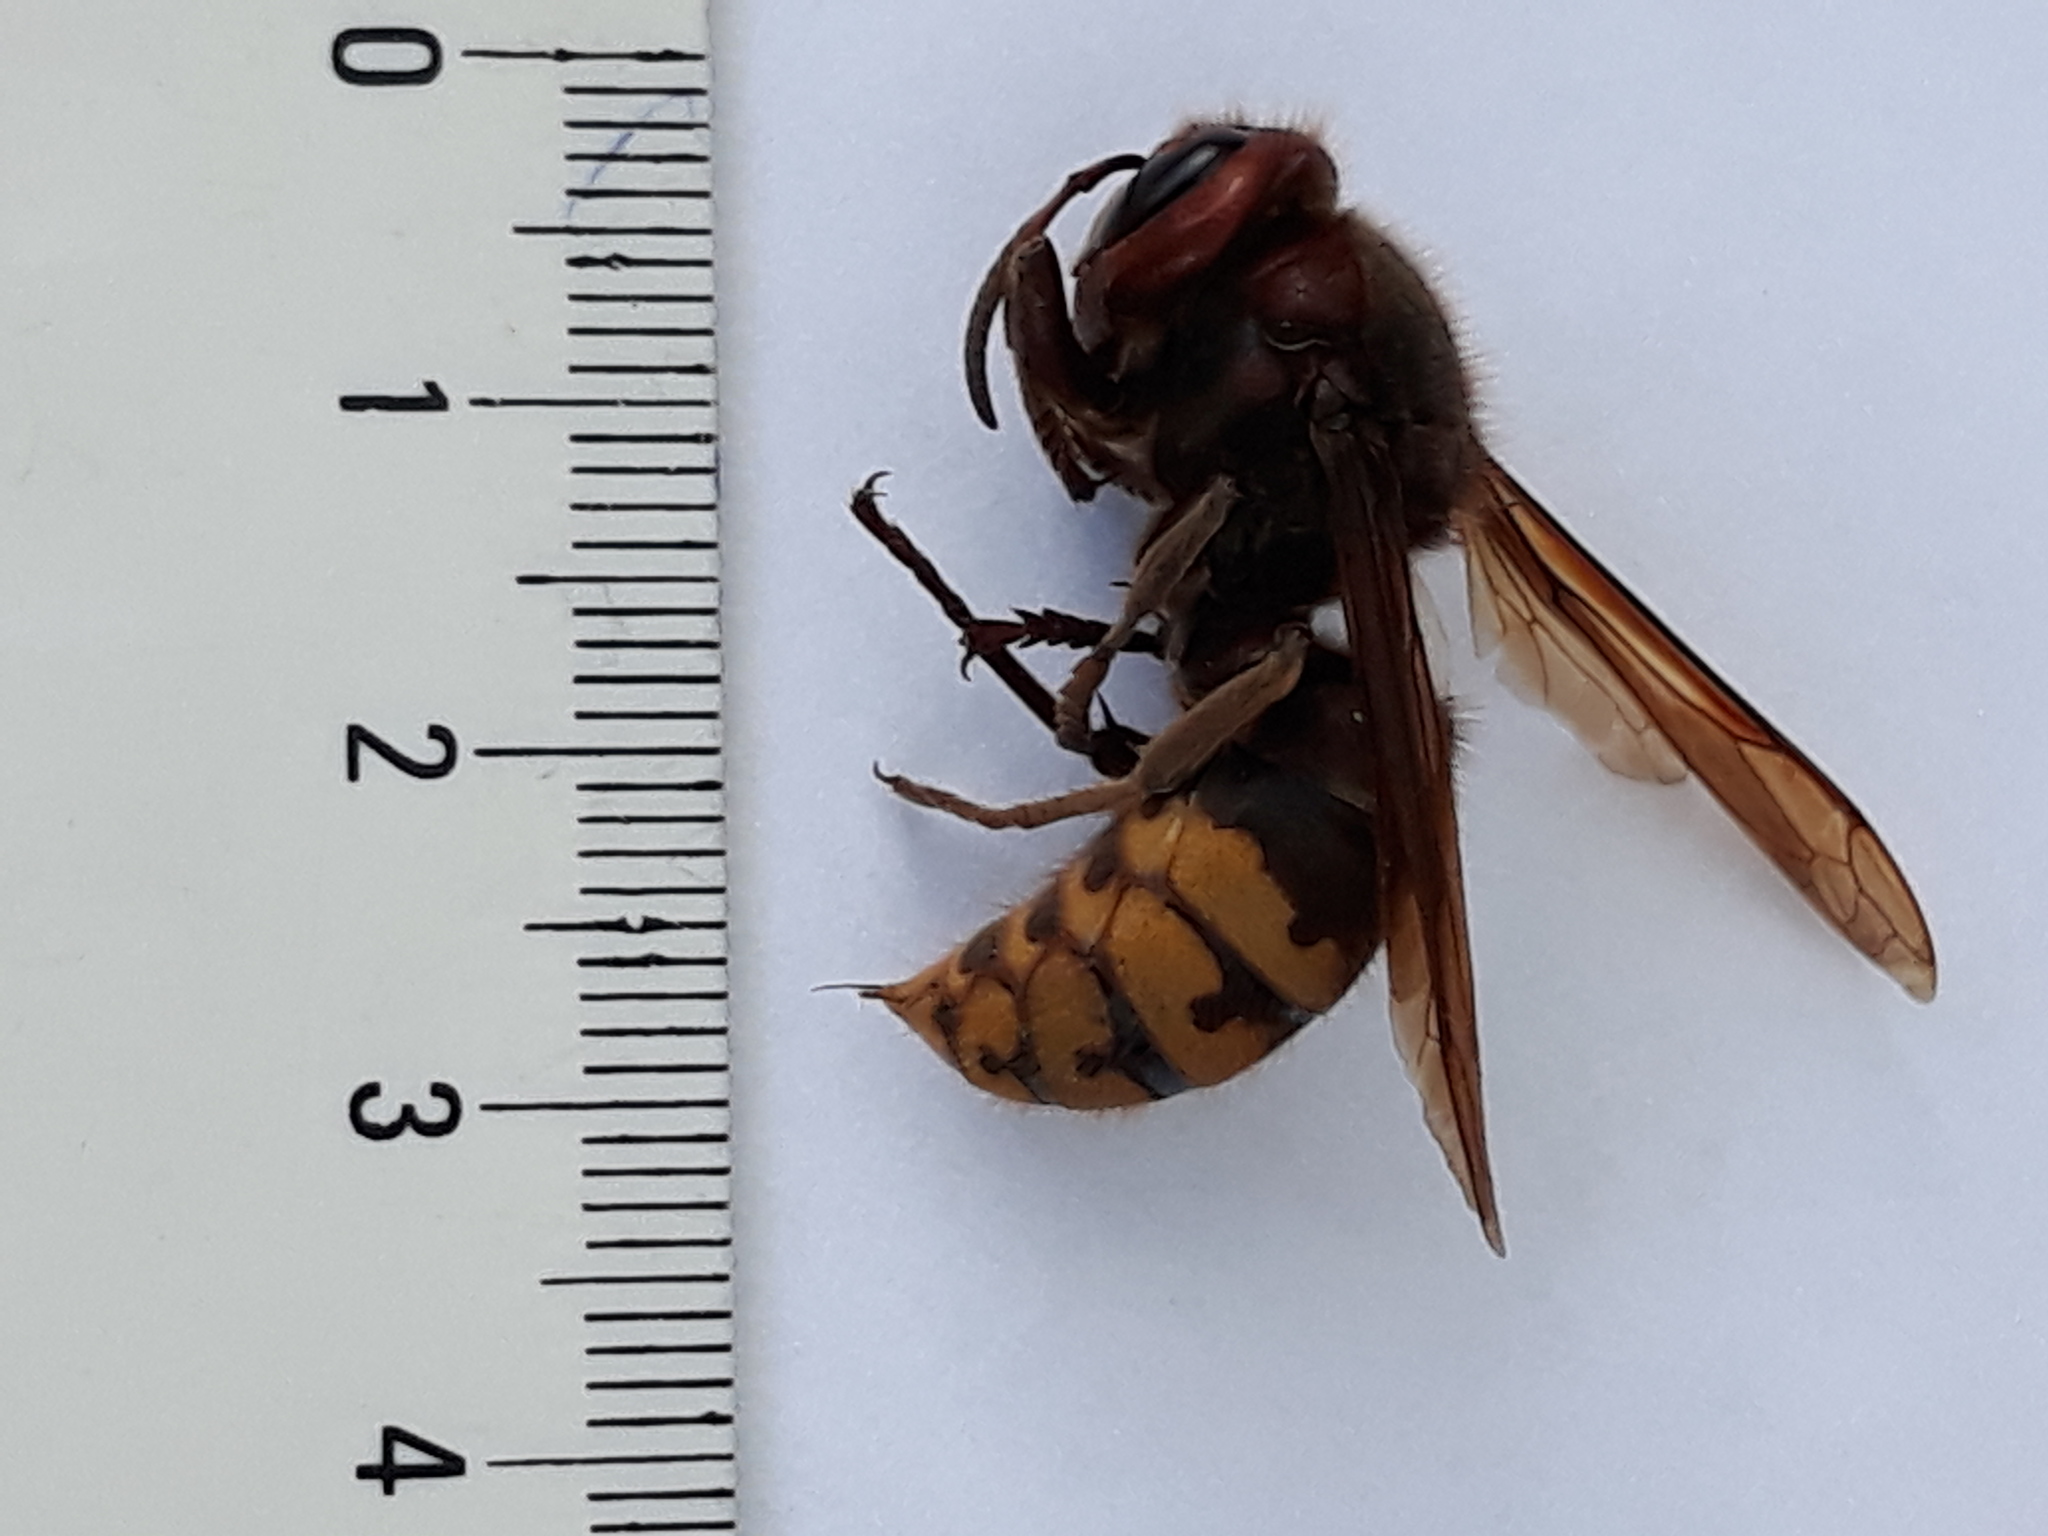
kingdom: Animalia
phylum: Arthropoda
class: Insecta
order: Hymenoptera
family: Vespidae
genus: Vespa
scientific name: Vespa crabro
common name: Hornet
